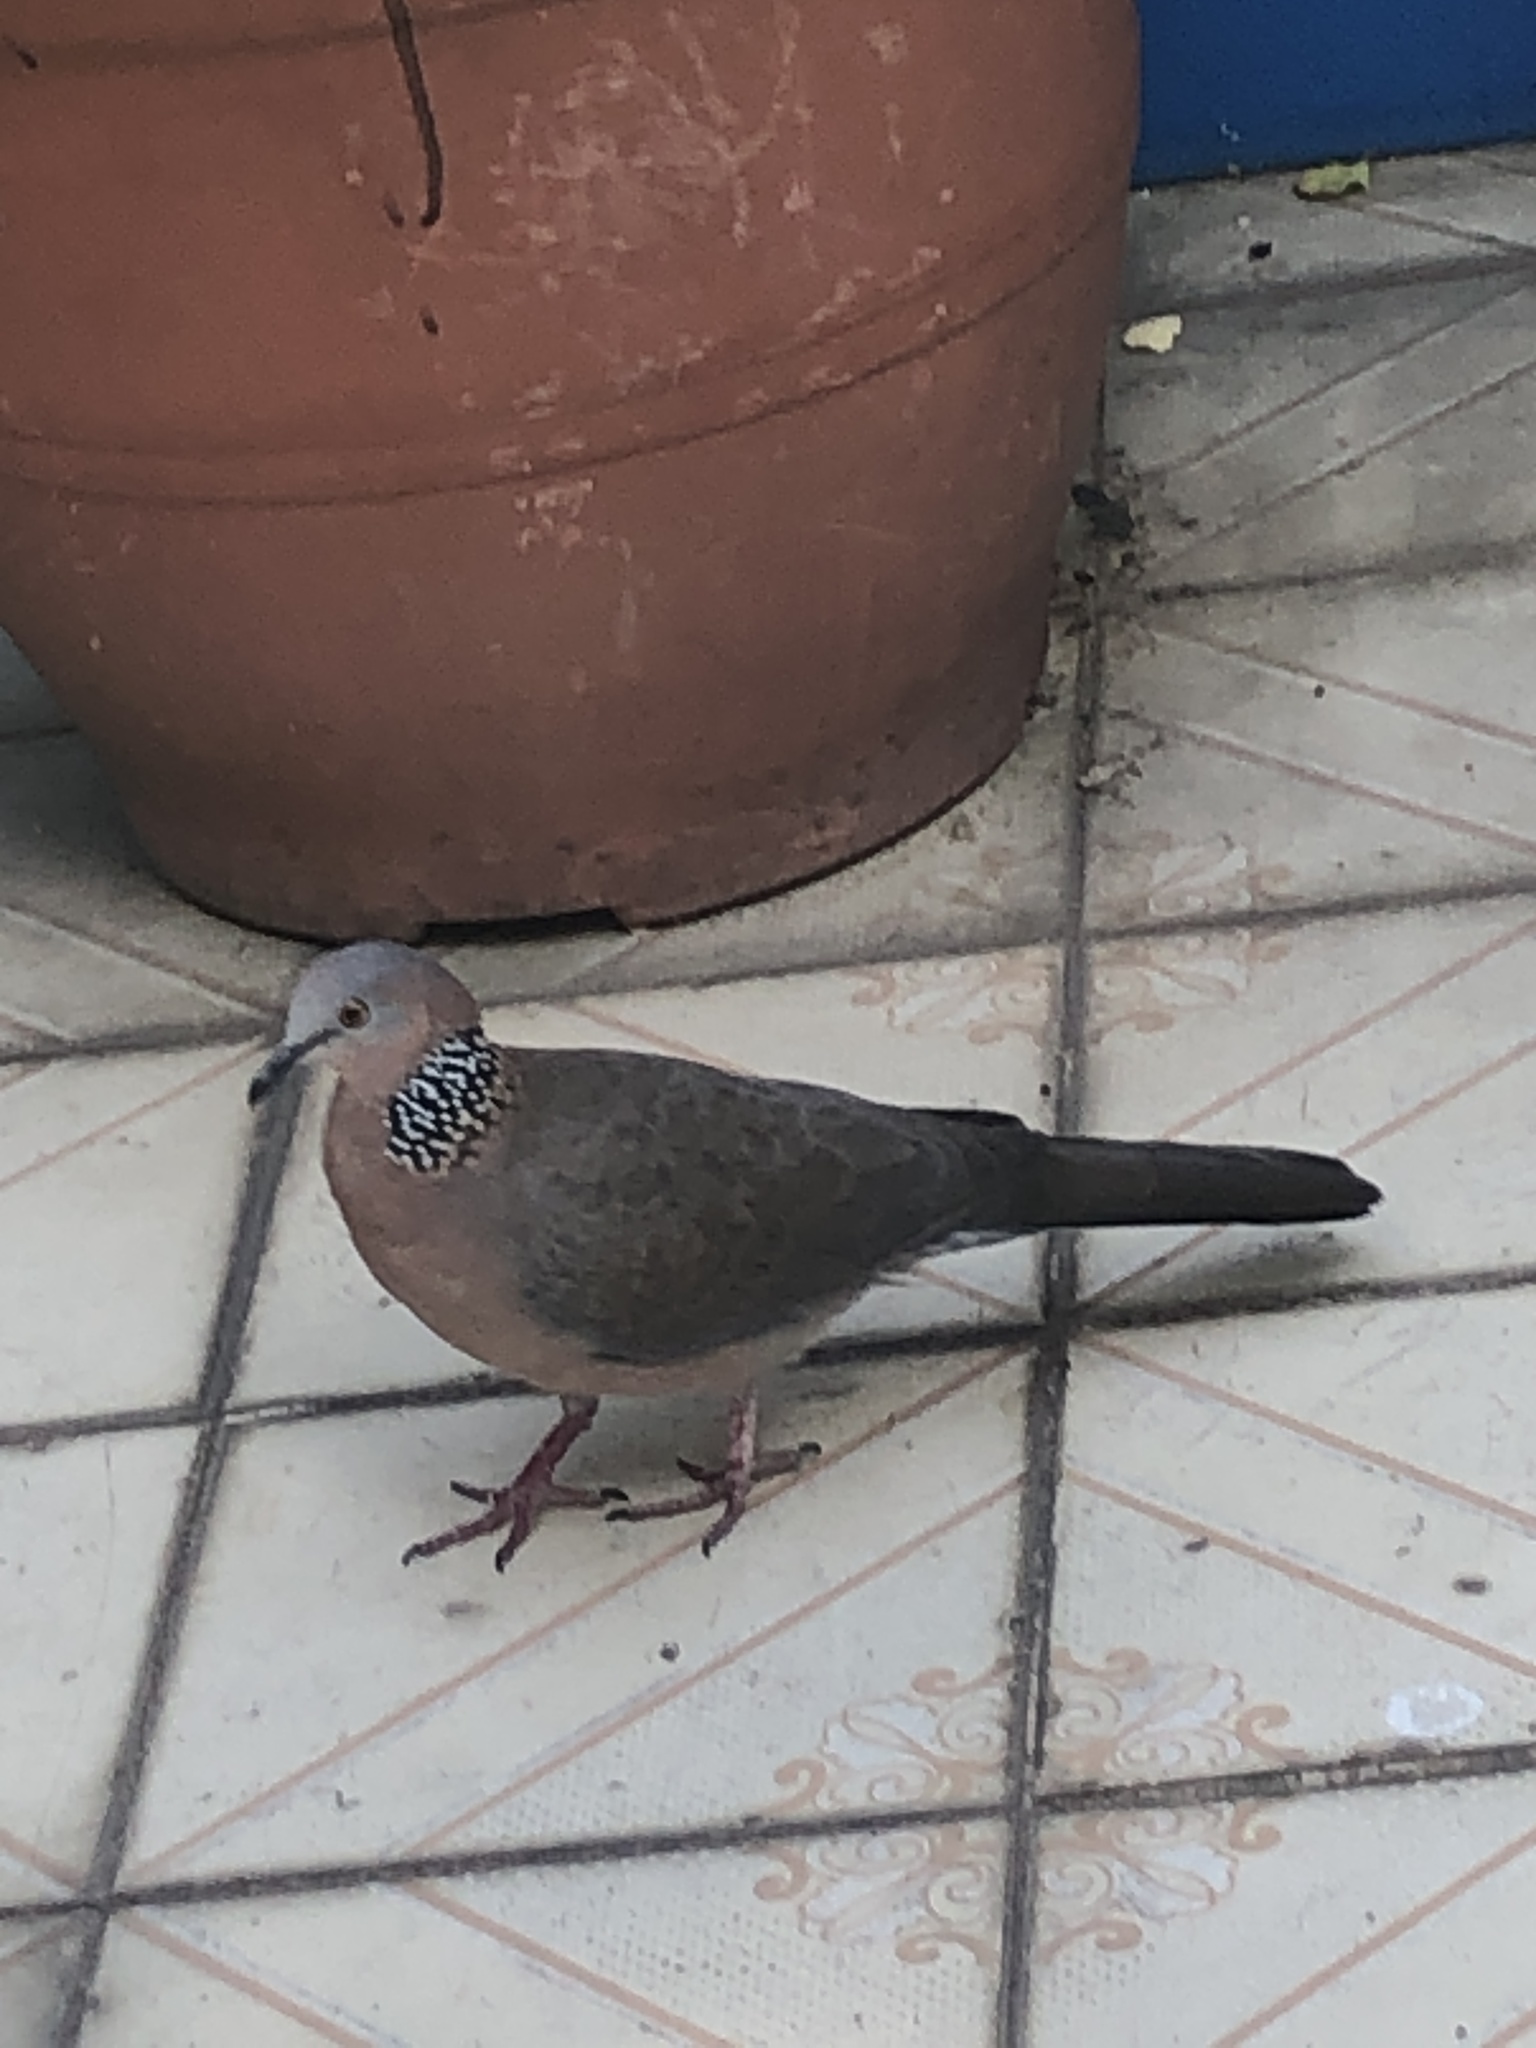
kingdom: Animalia
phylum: Chordata
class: Aves
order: Columbiformes
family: Columbidae
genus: Spilopelia
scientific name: Spilopelia chinensis
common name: Spotted dove
